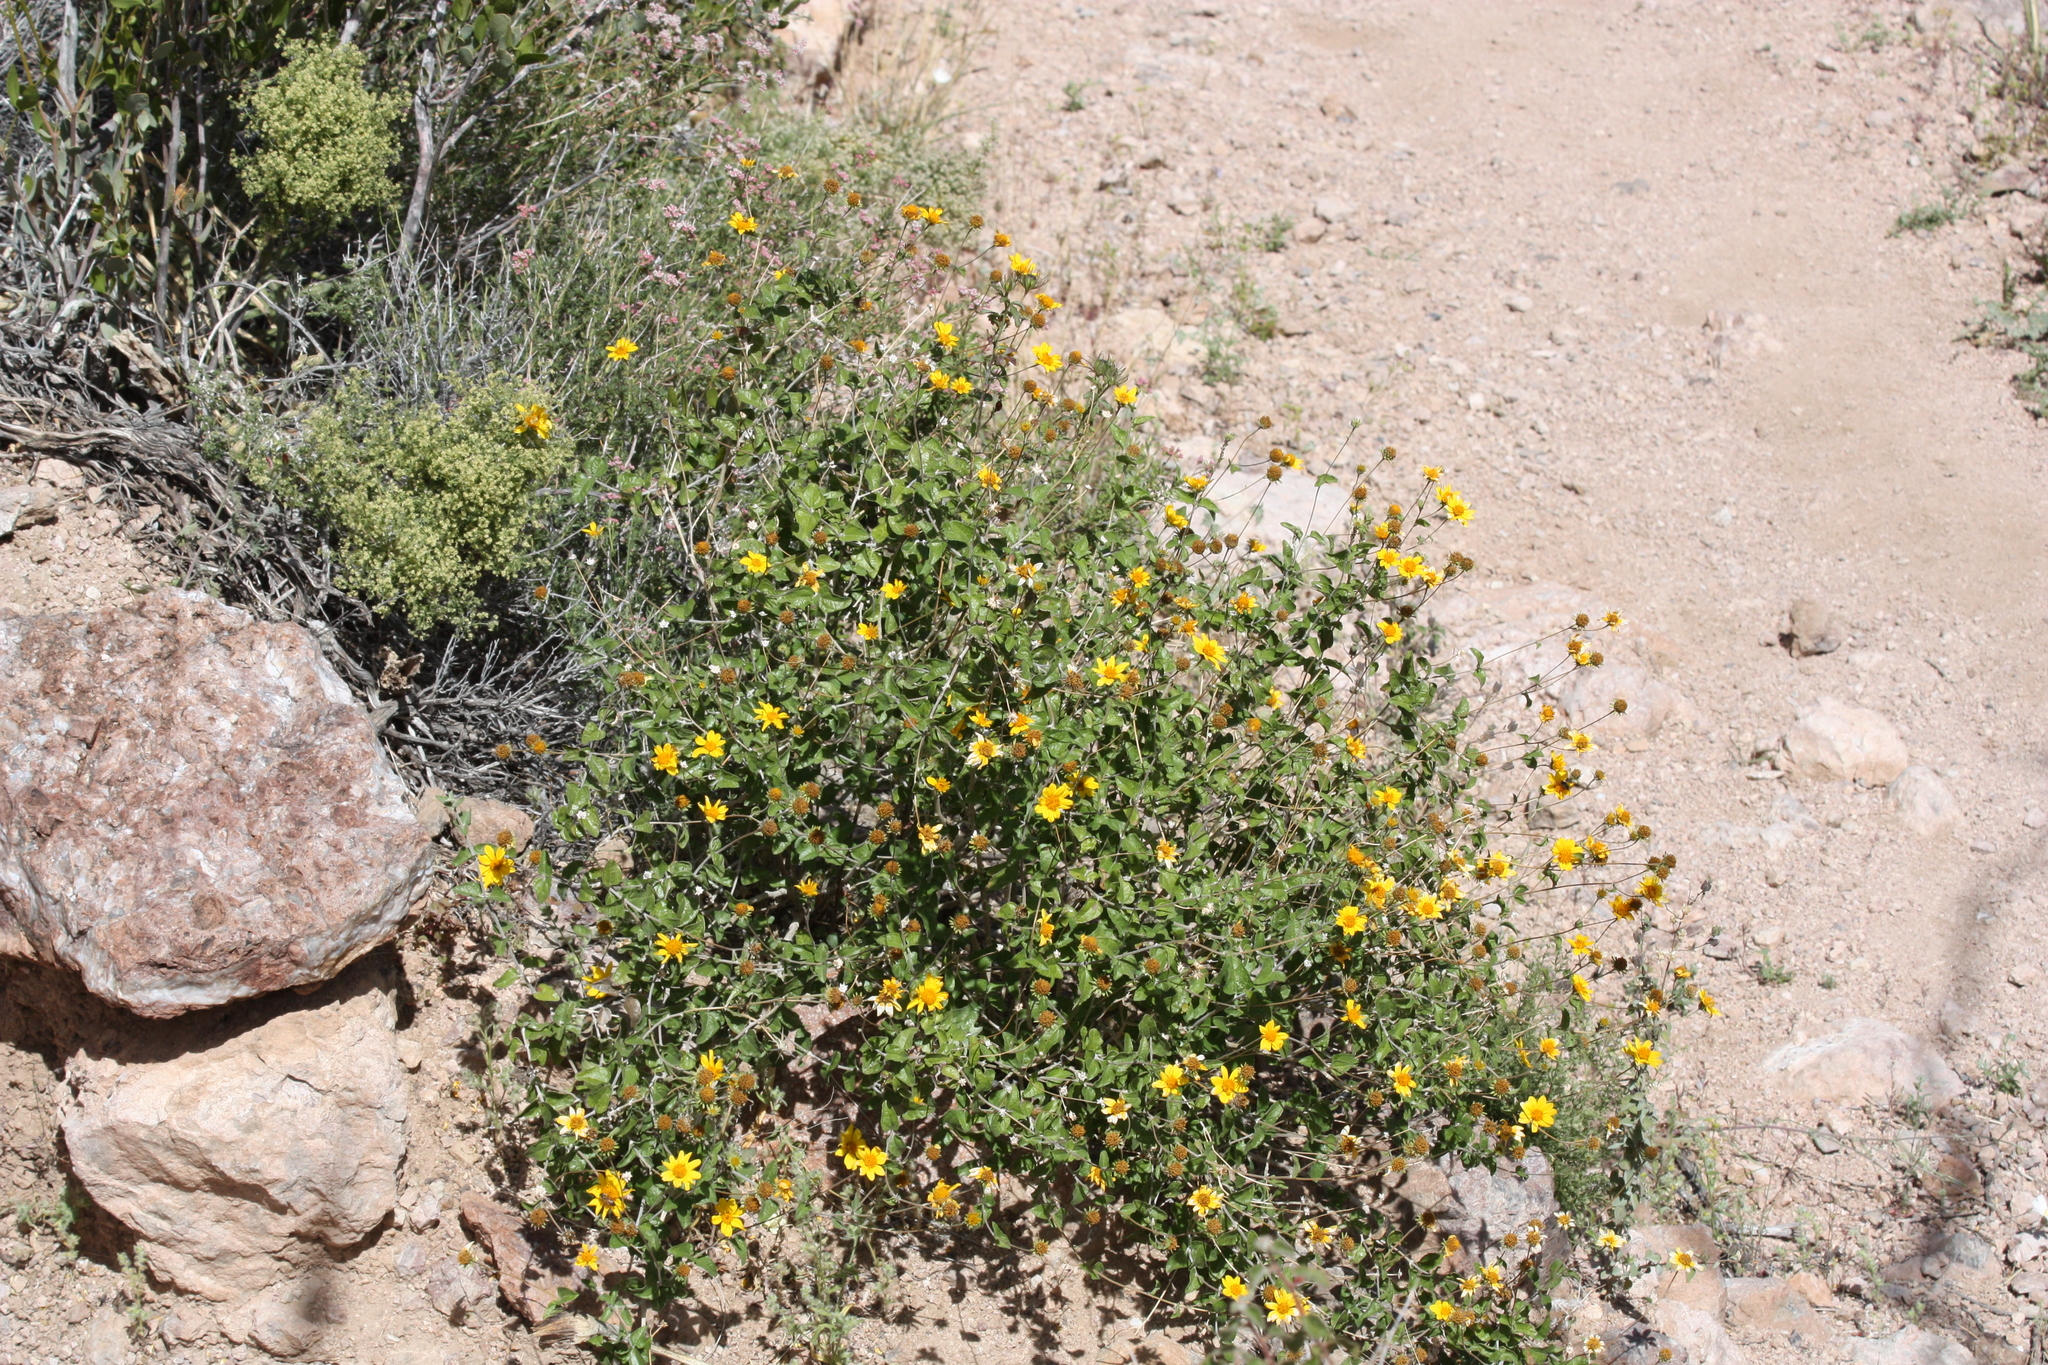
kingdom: Plantae
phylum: Tracheophyta
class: Magnoliopsida
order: Asterales
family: Asteraceae
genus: Bahiopsis
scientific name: Bahiopsis parishii
